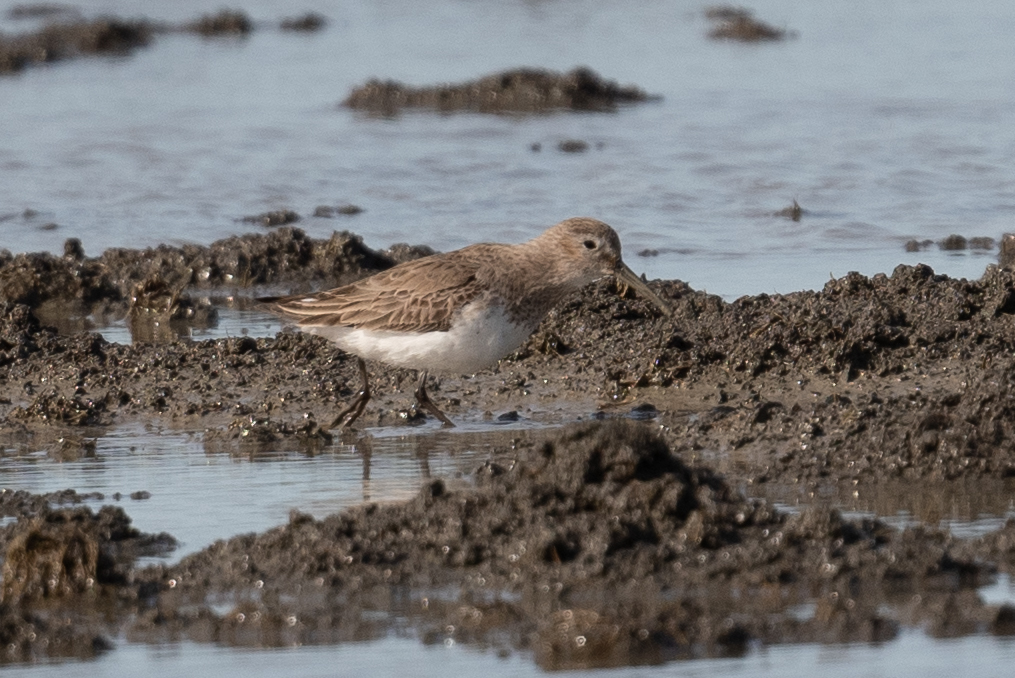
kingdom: Animalia
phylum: Chordata
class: Aves
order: Charadriiformes
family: Scolopacidae
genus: Calidris
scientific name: Calidris alpina
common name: Dunlin
